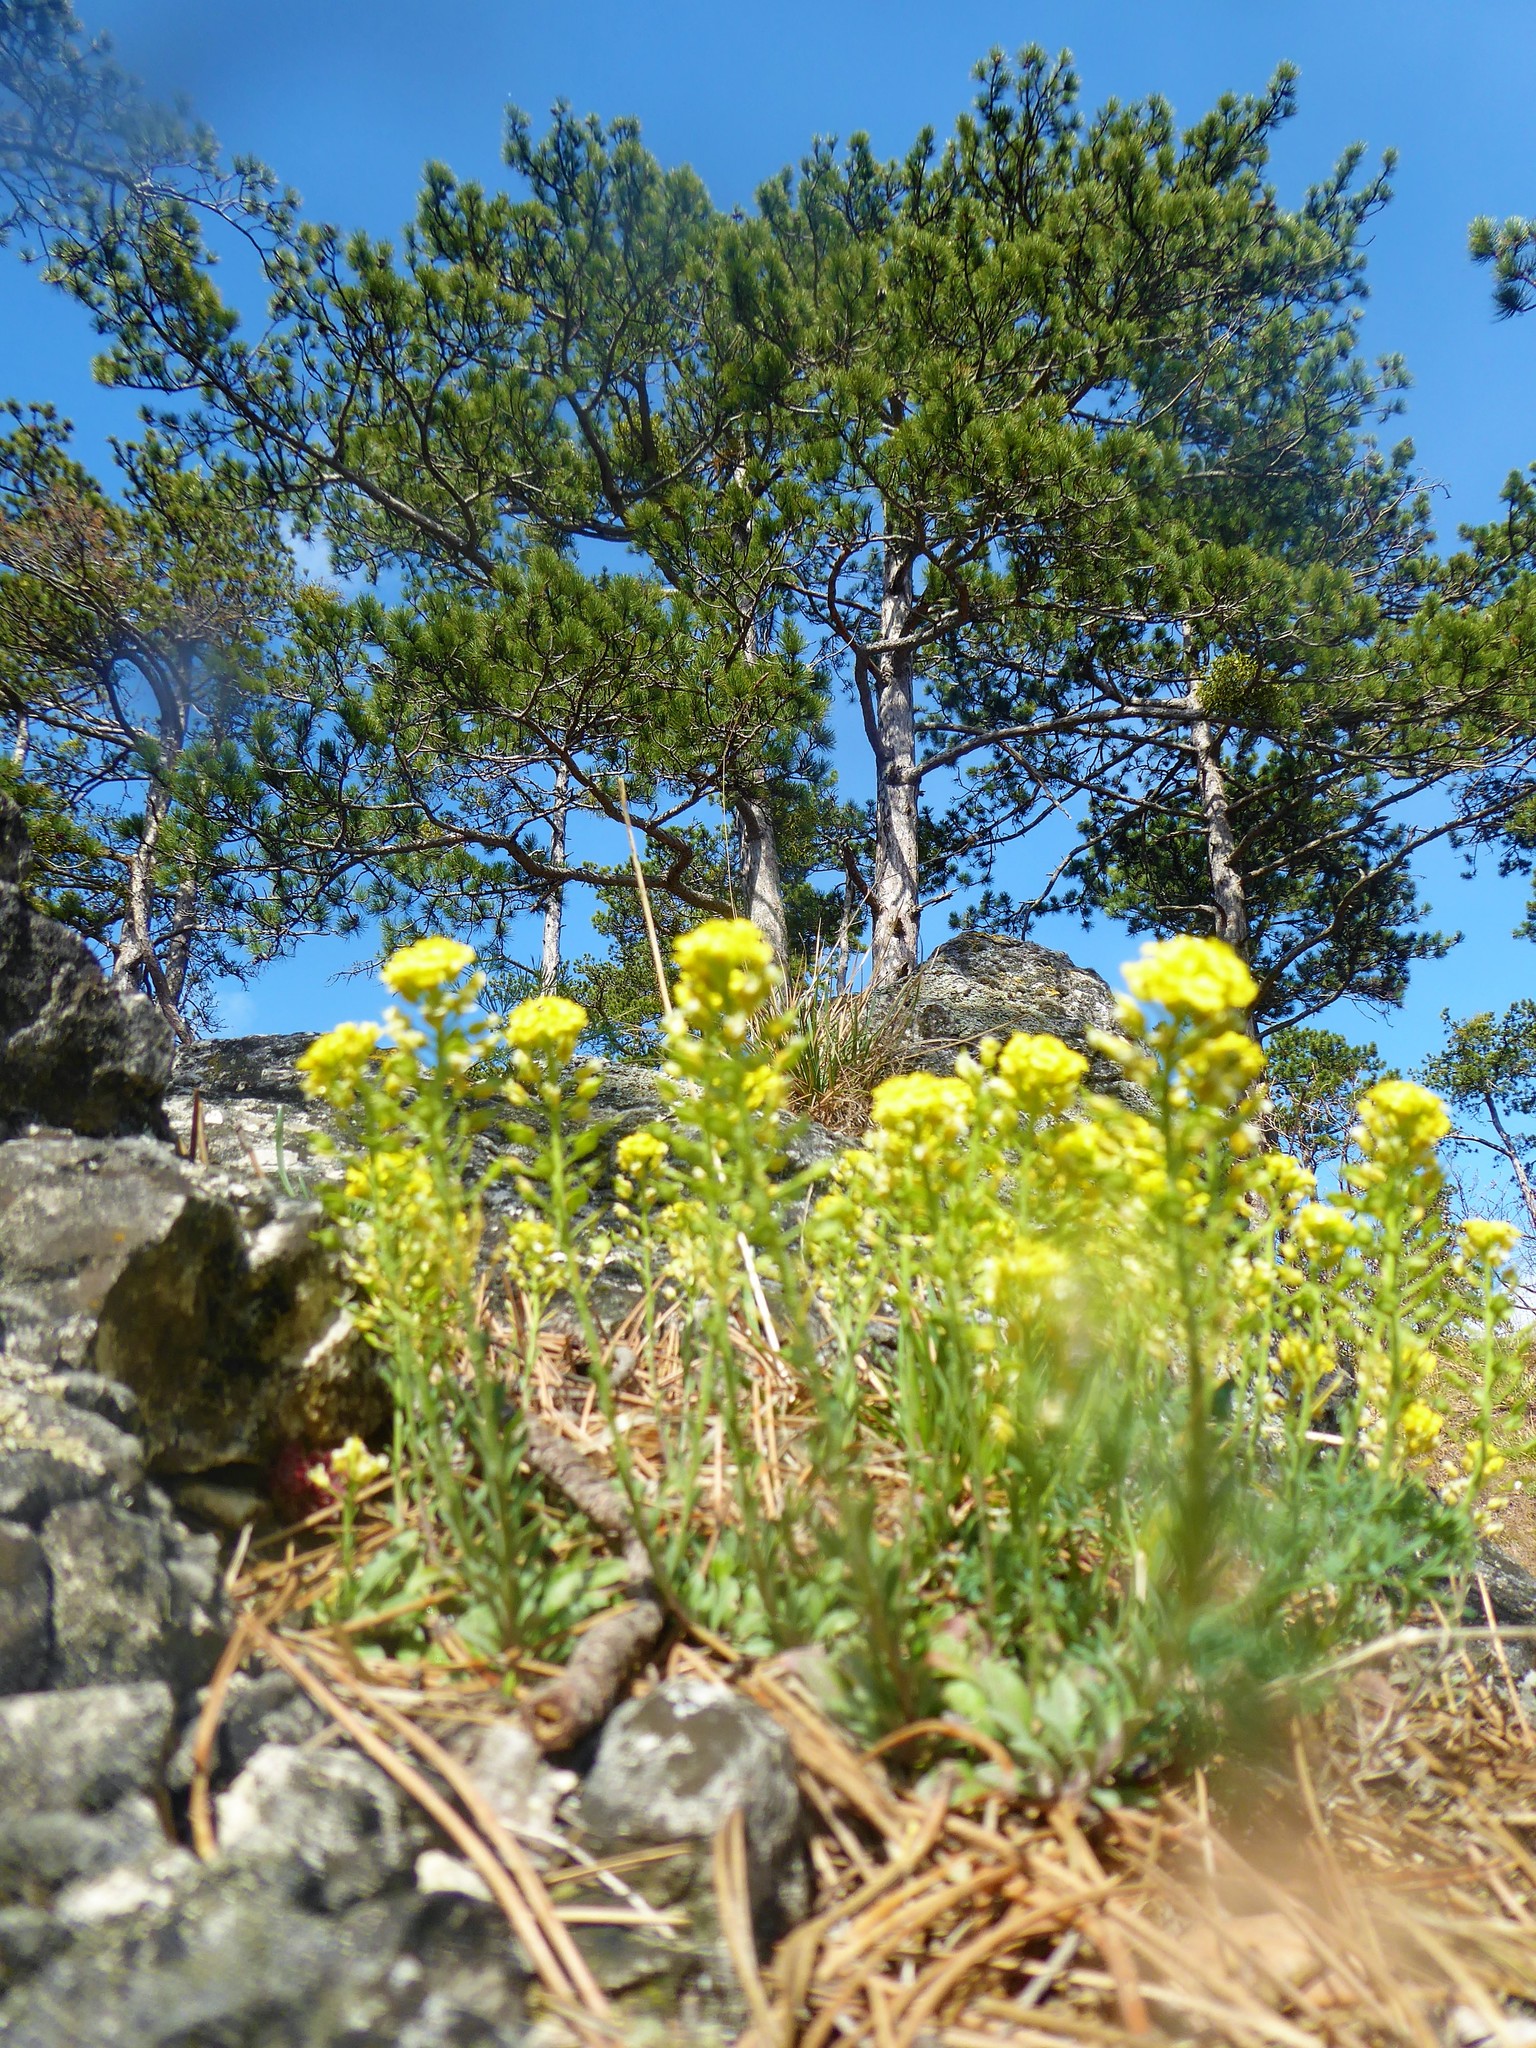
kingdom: Plantae
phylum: Tracheophyta
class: Magnoliopsida
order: Brassicales
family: Brassicaceae
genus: Alyssum
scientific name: Alyssum gmelinii
